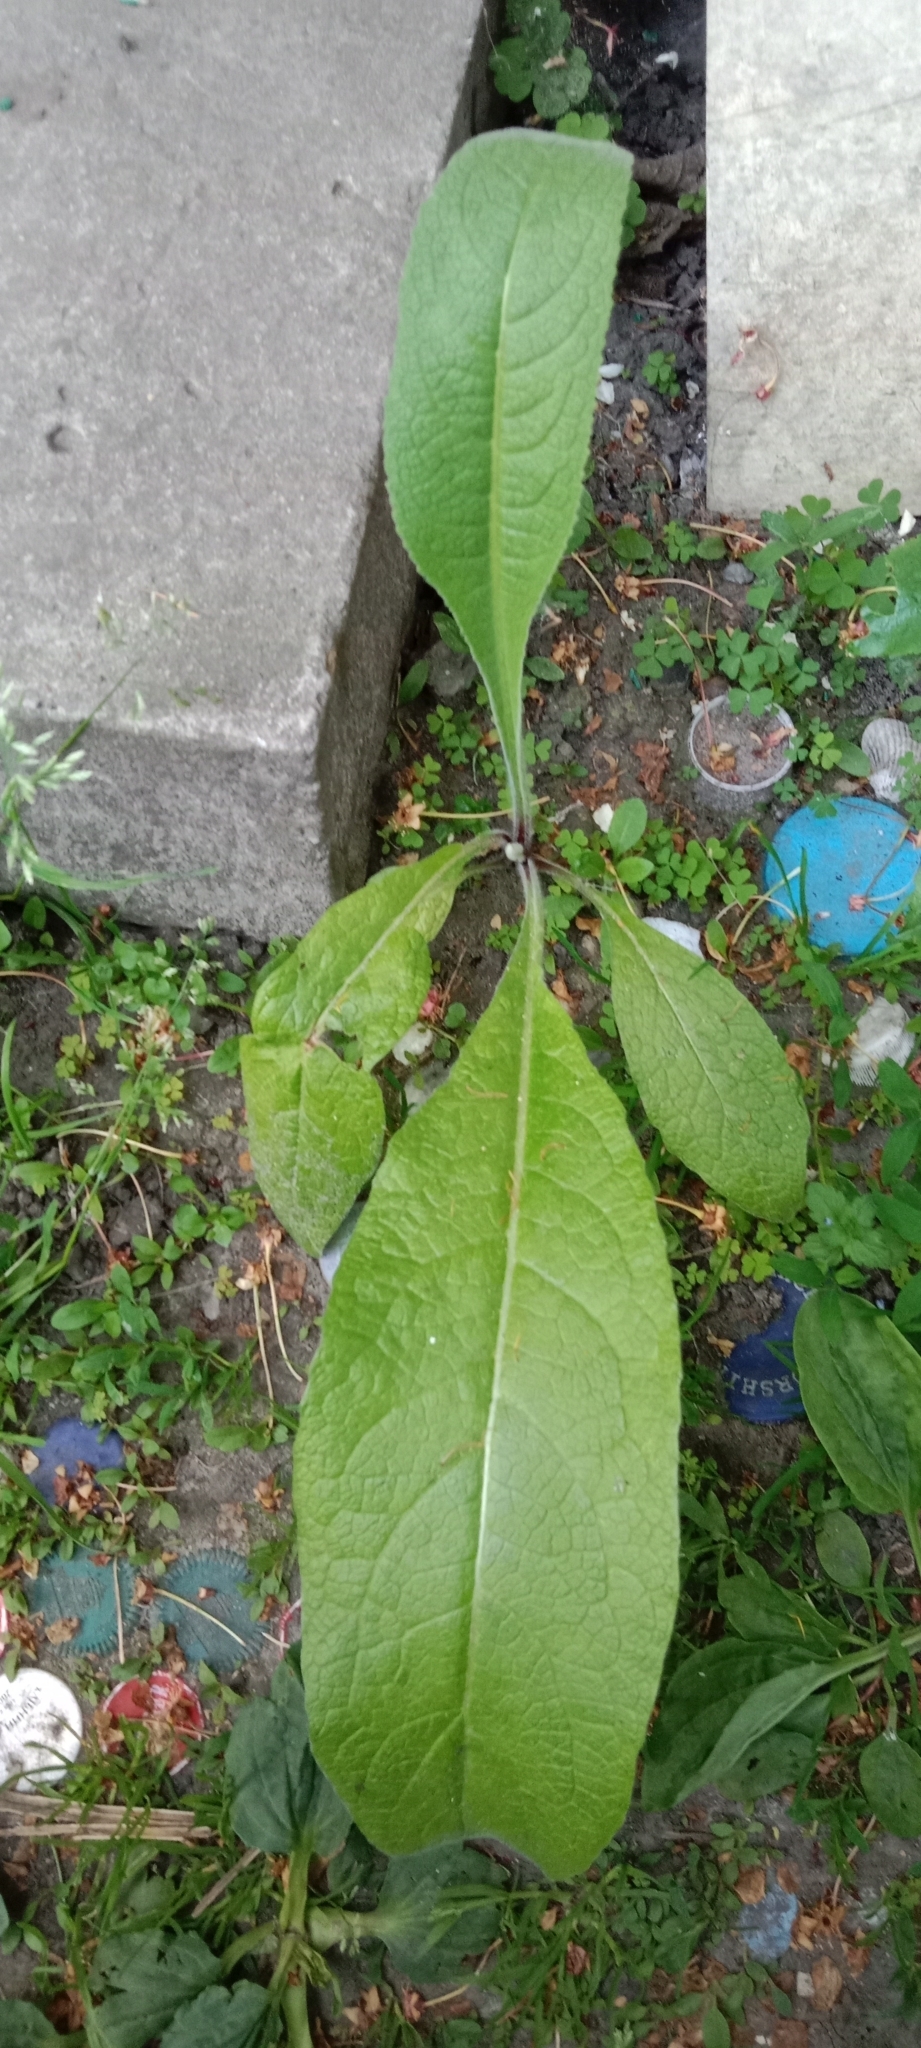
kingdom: Plantae
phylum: Tracheophyta
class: Magnoliopsida
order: Asterales
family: Asteraceae
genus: Inula
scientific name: Inula helenium
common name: Elecampane
